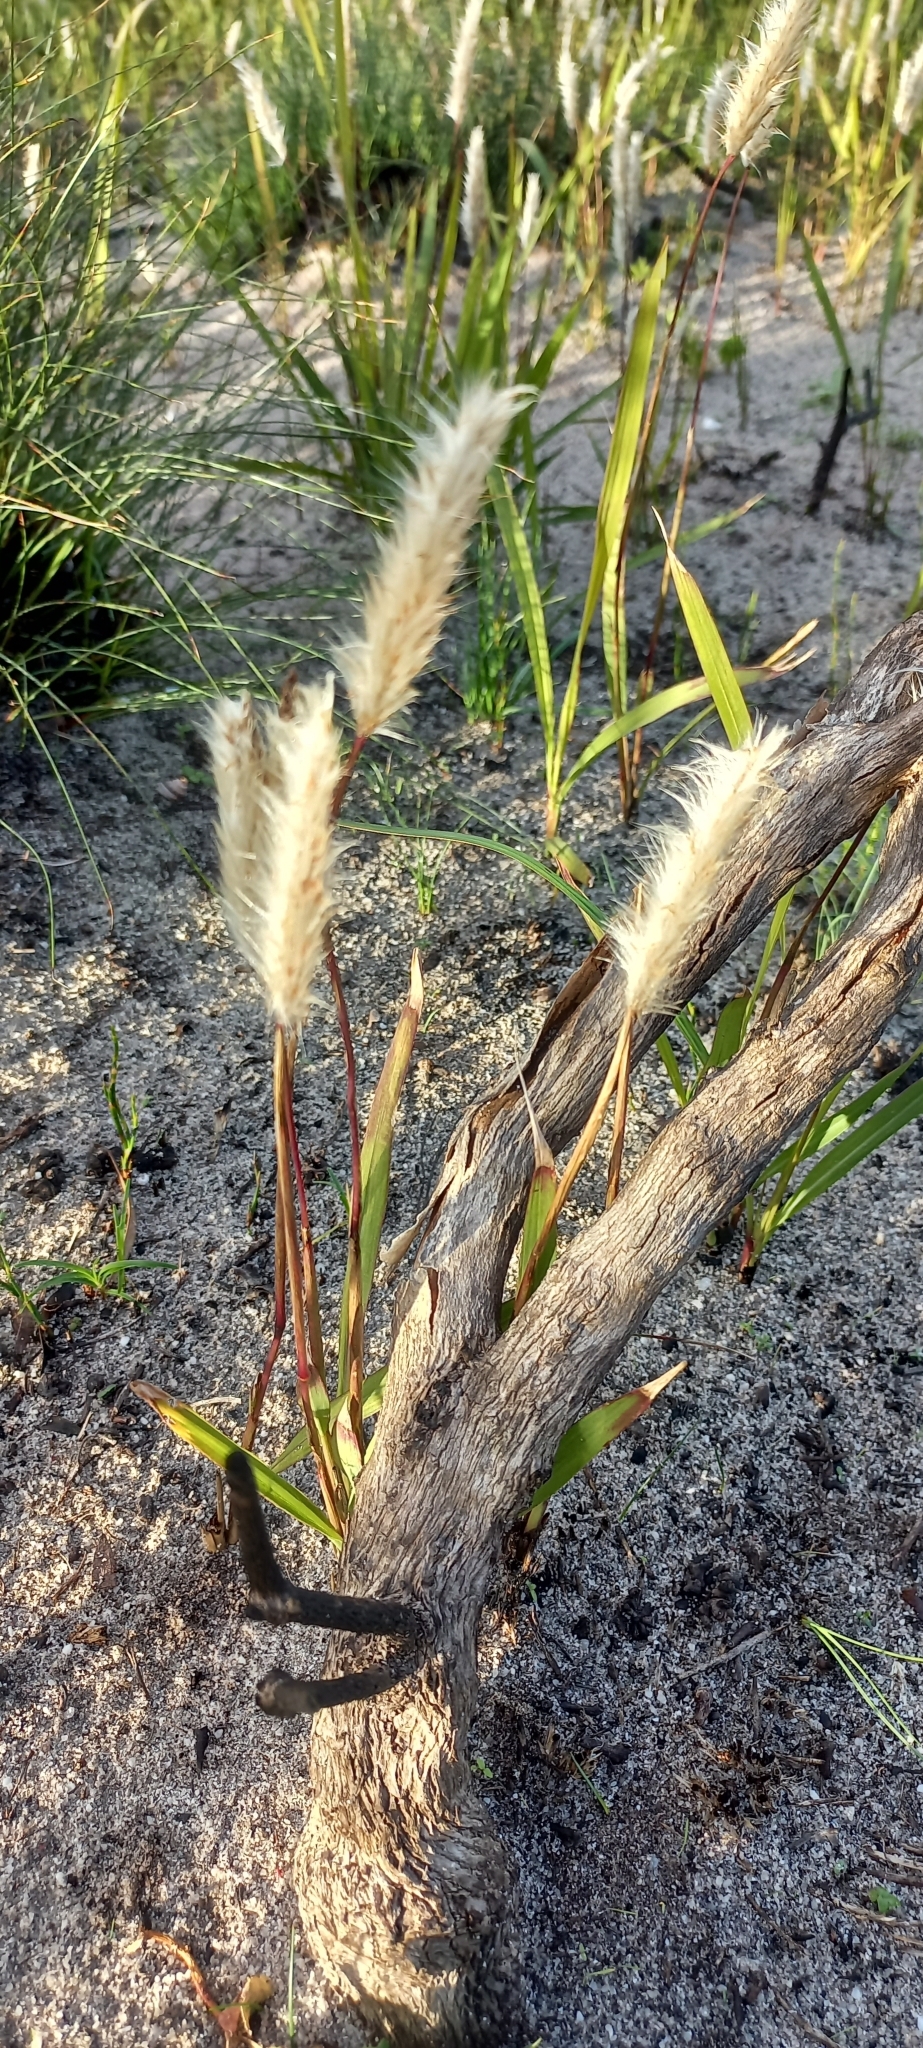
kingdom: Plantae
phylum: Tracheophyta
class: Liliopsida
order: Poales
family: Poaceae
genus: Imperata
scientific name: Imperata cylindrica
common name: Cogongrass
